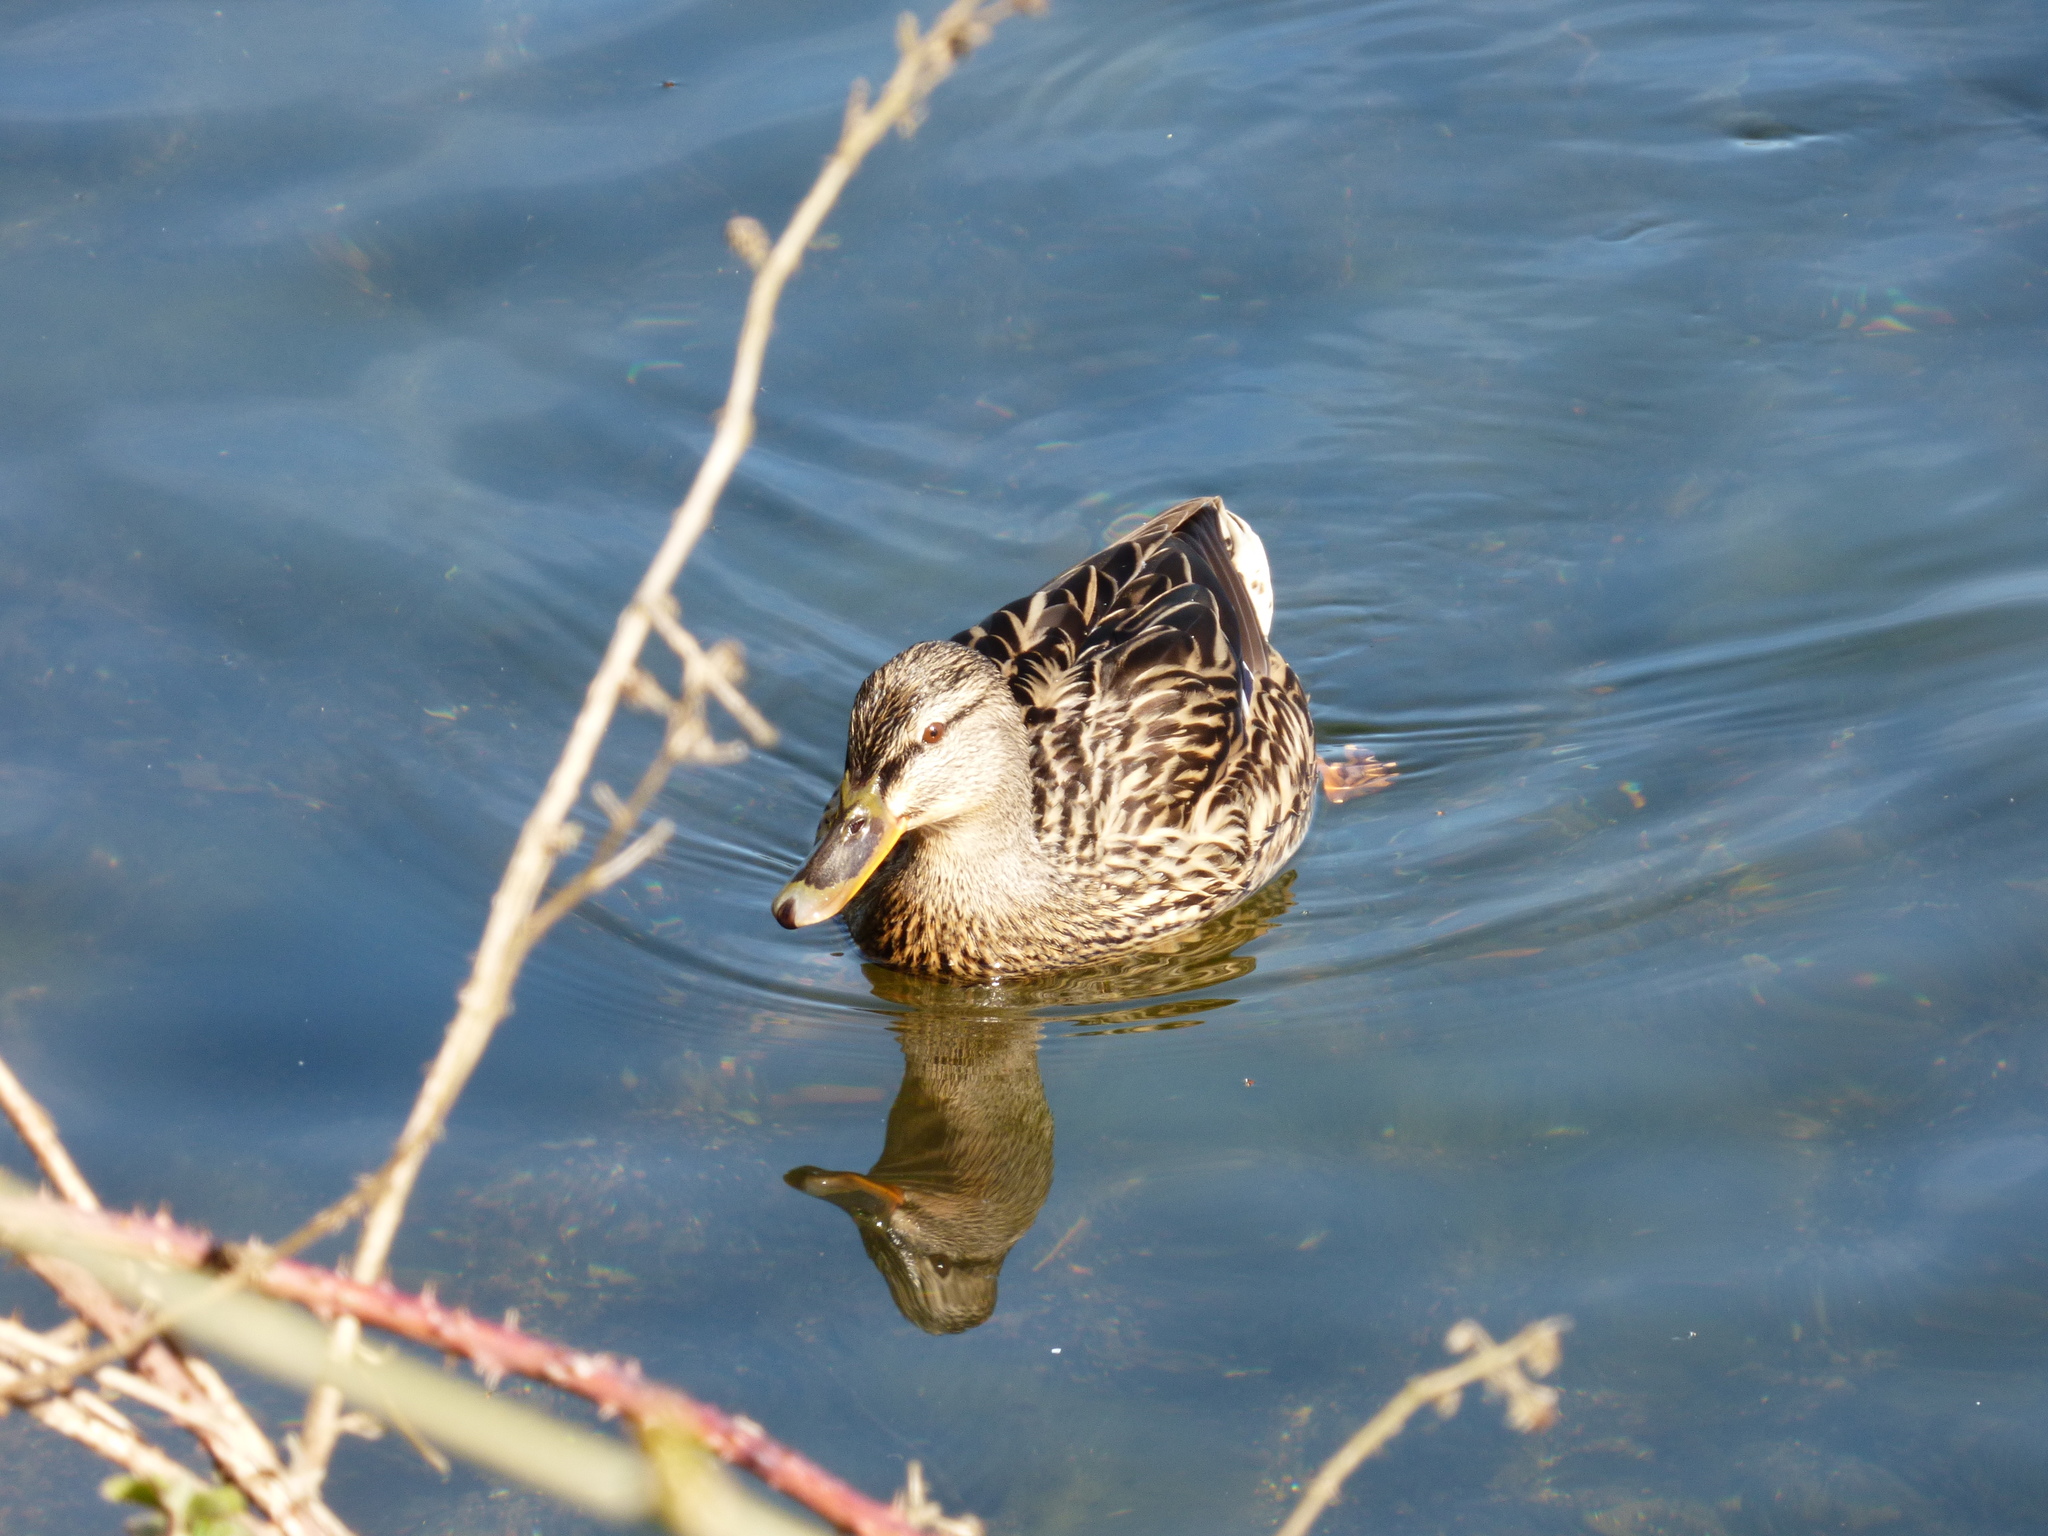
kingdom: Animalia
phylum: Chordata
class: Aves
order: Anseriformes
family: Anatidae
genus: Anas
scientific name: Anas platyrhynchos
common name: Mallard
